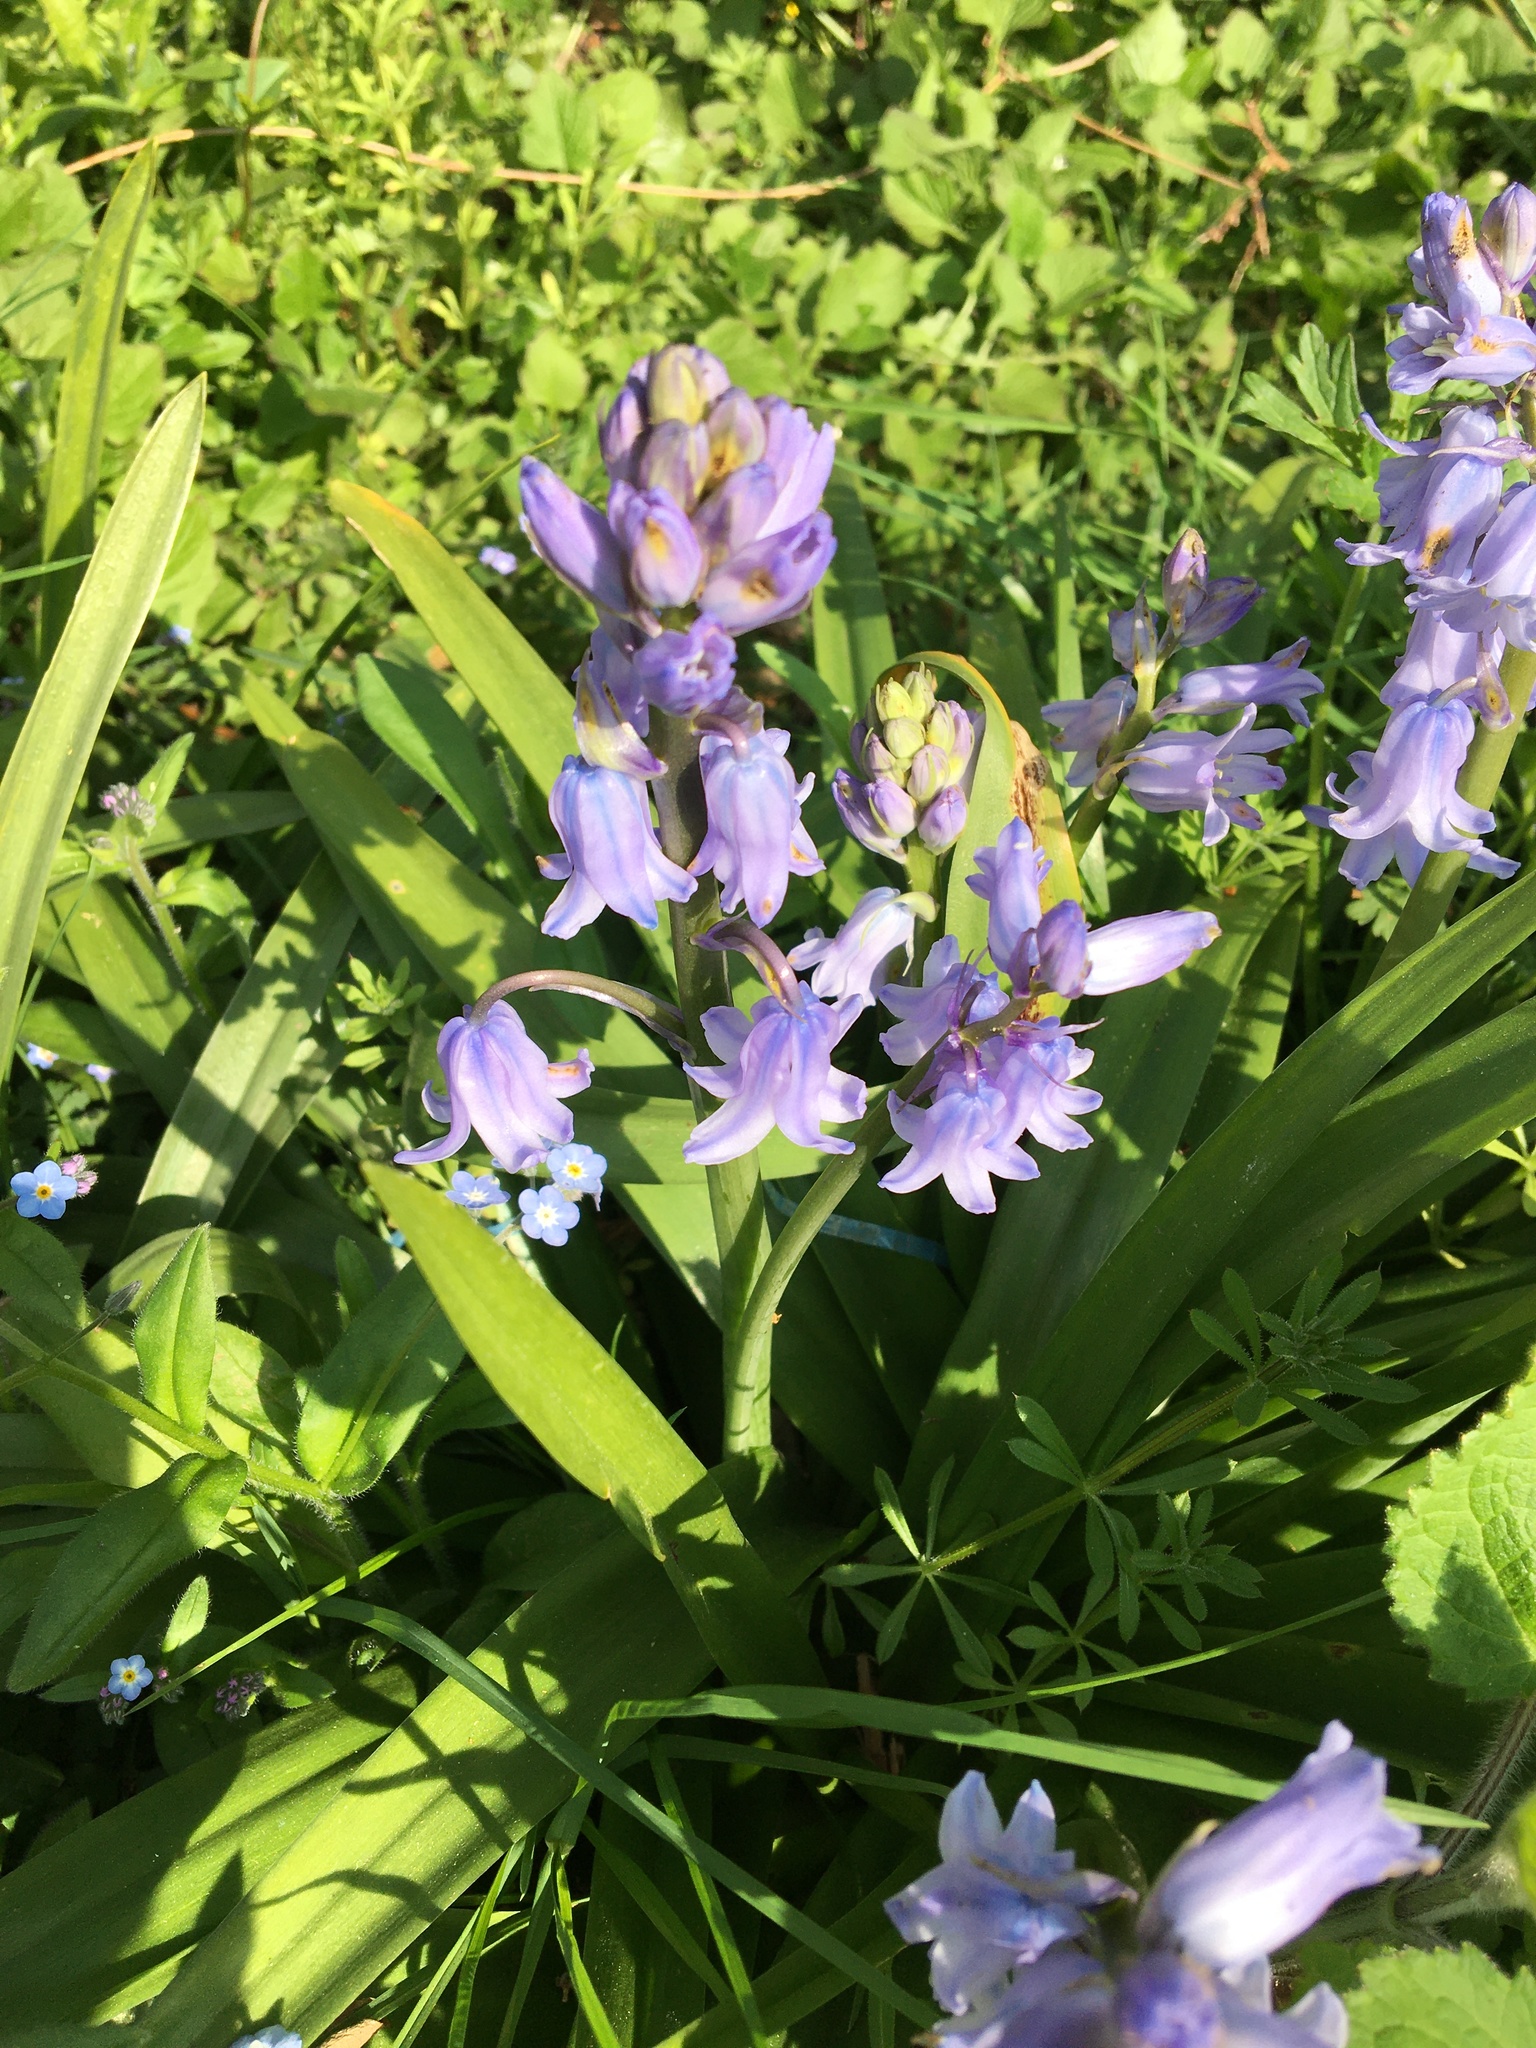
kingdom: Plantae
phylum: Tracheophyta
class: Liliopsida
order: Asparagales
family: Asparagaceae
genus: Hyacinthoides
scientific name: Hyacinthoides hispanica
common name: Spanish bluebell
